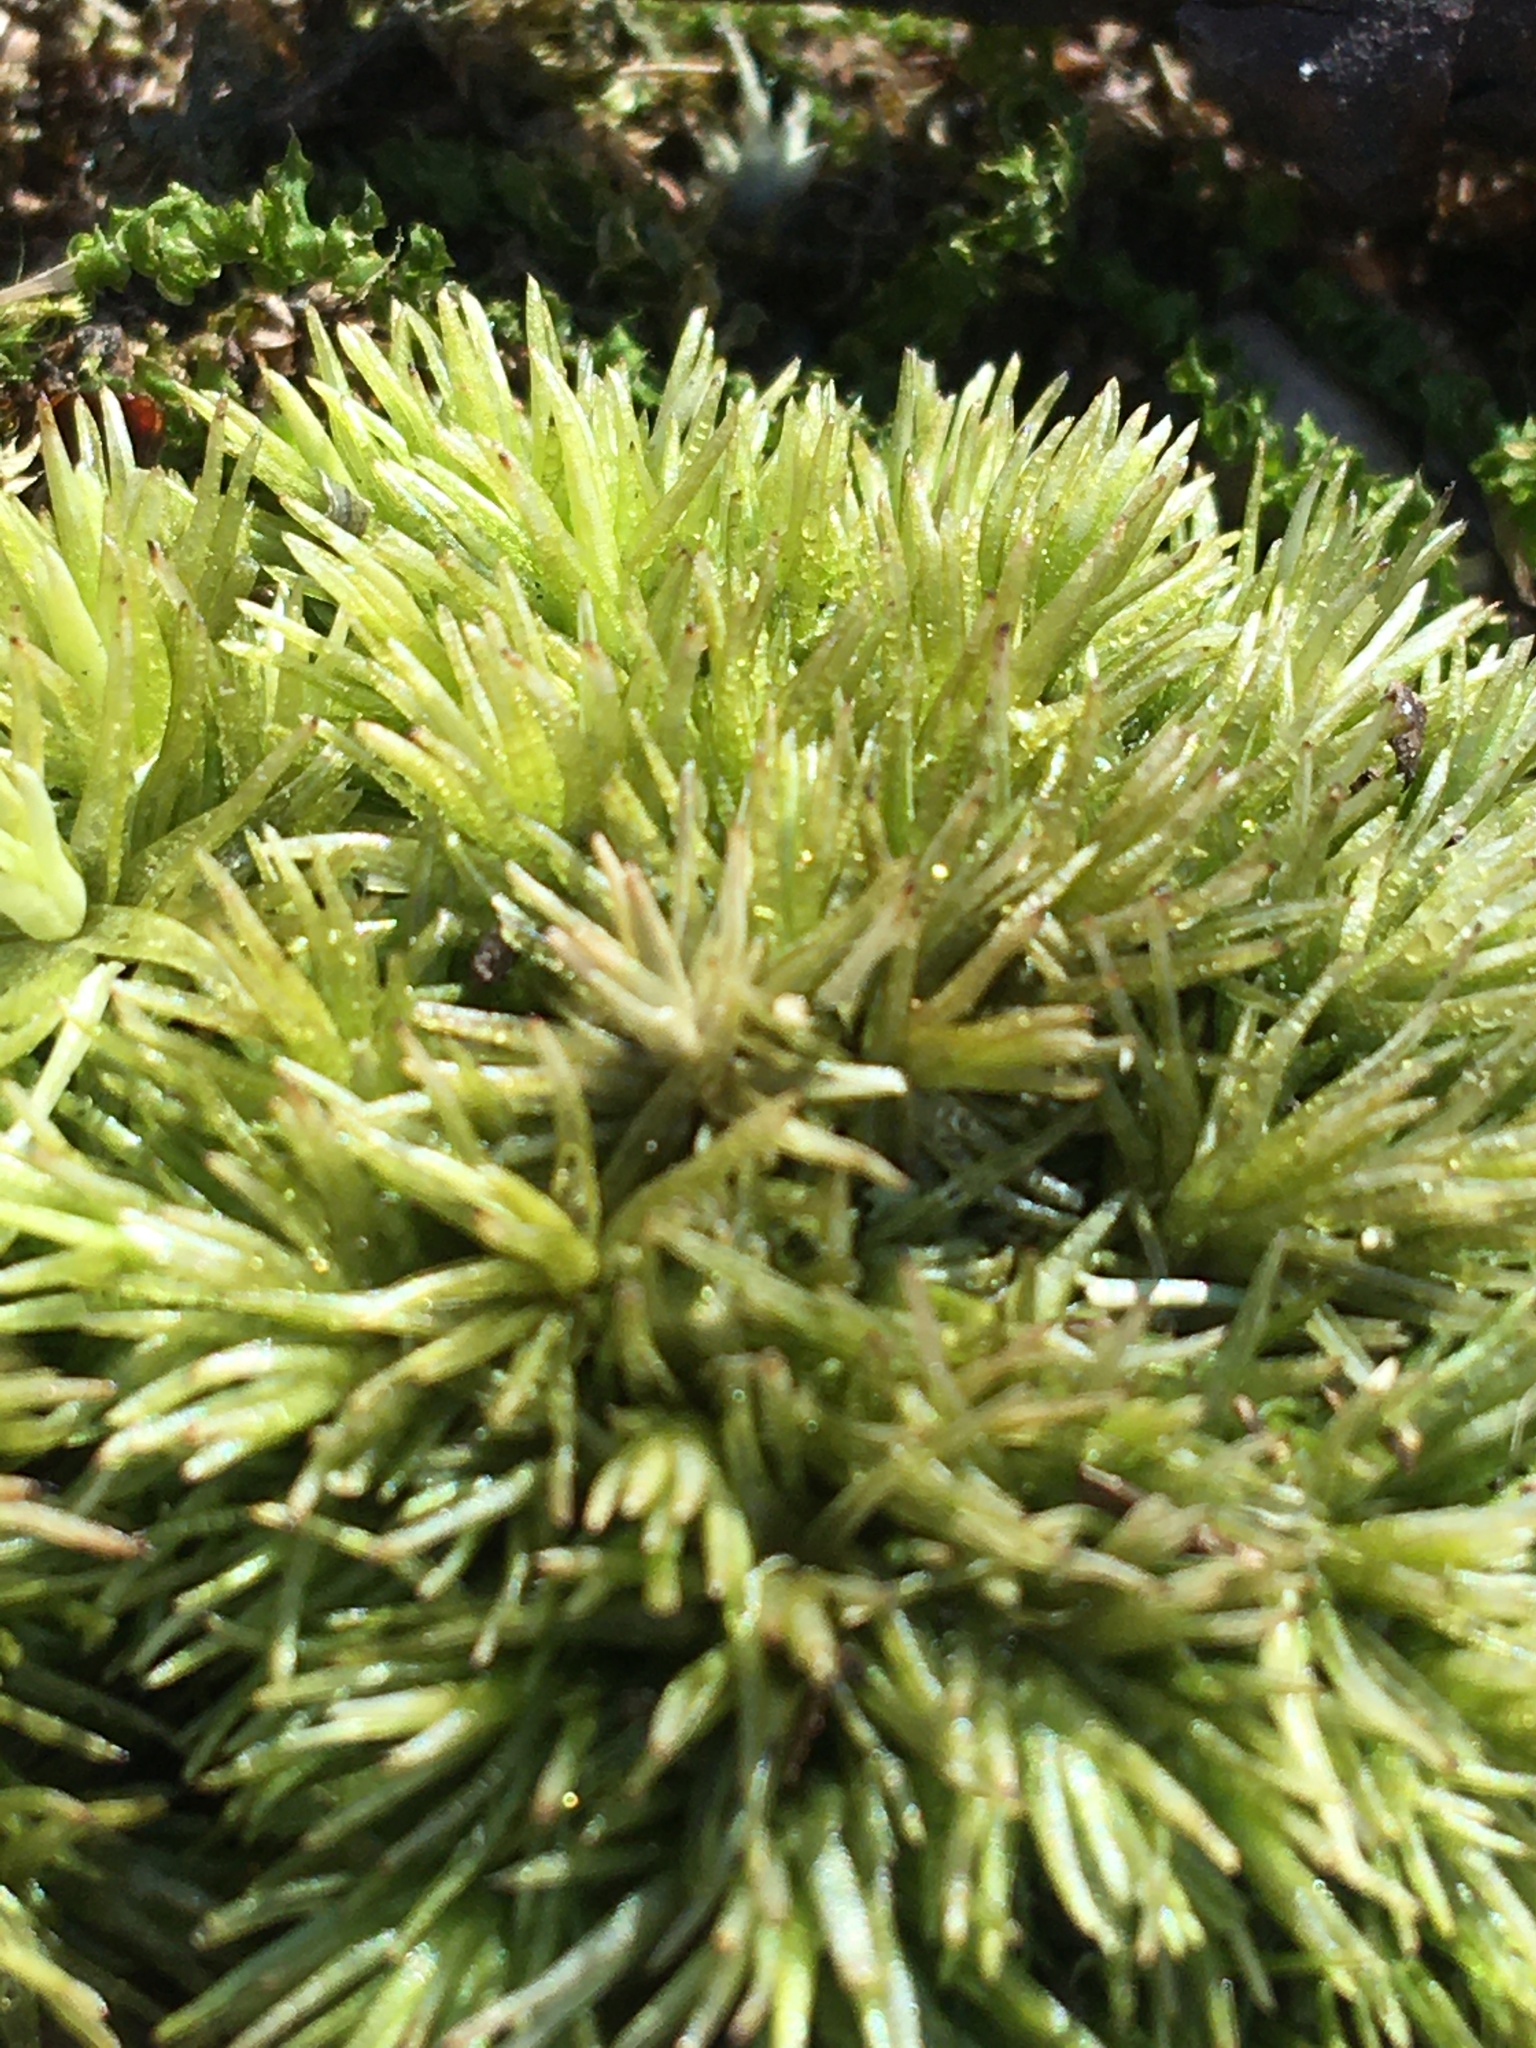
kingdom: Plantae
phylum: Bryophyta
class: Bryopsida
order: Dicranales
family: Leucobryaceae
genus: Leucobryum
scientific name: Leucobryum glaucum
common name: Large white-moss
